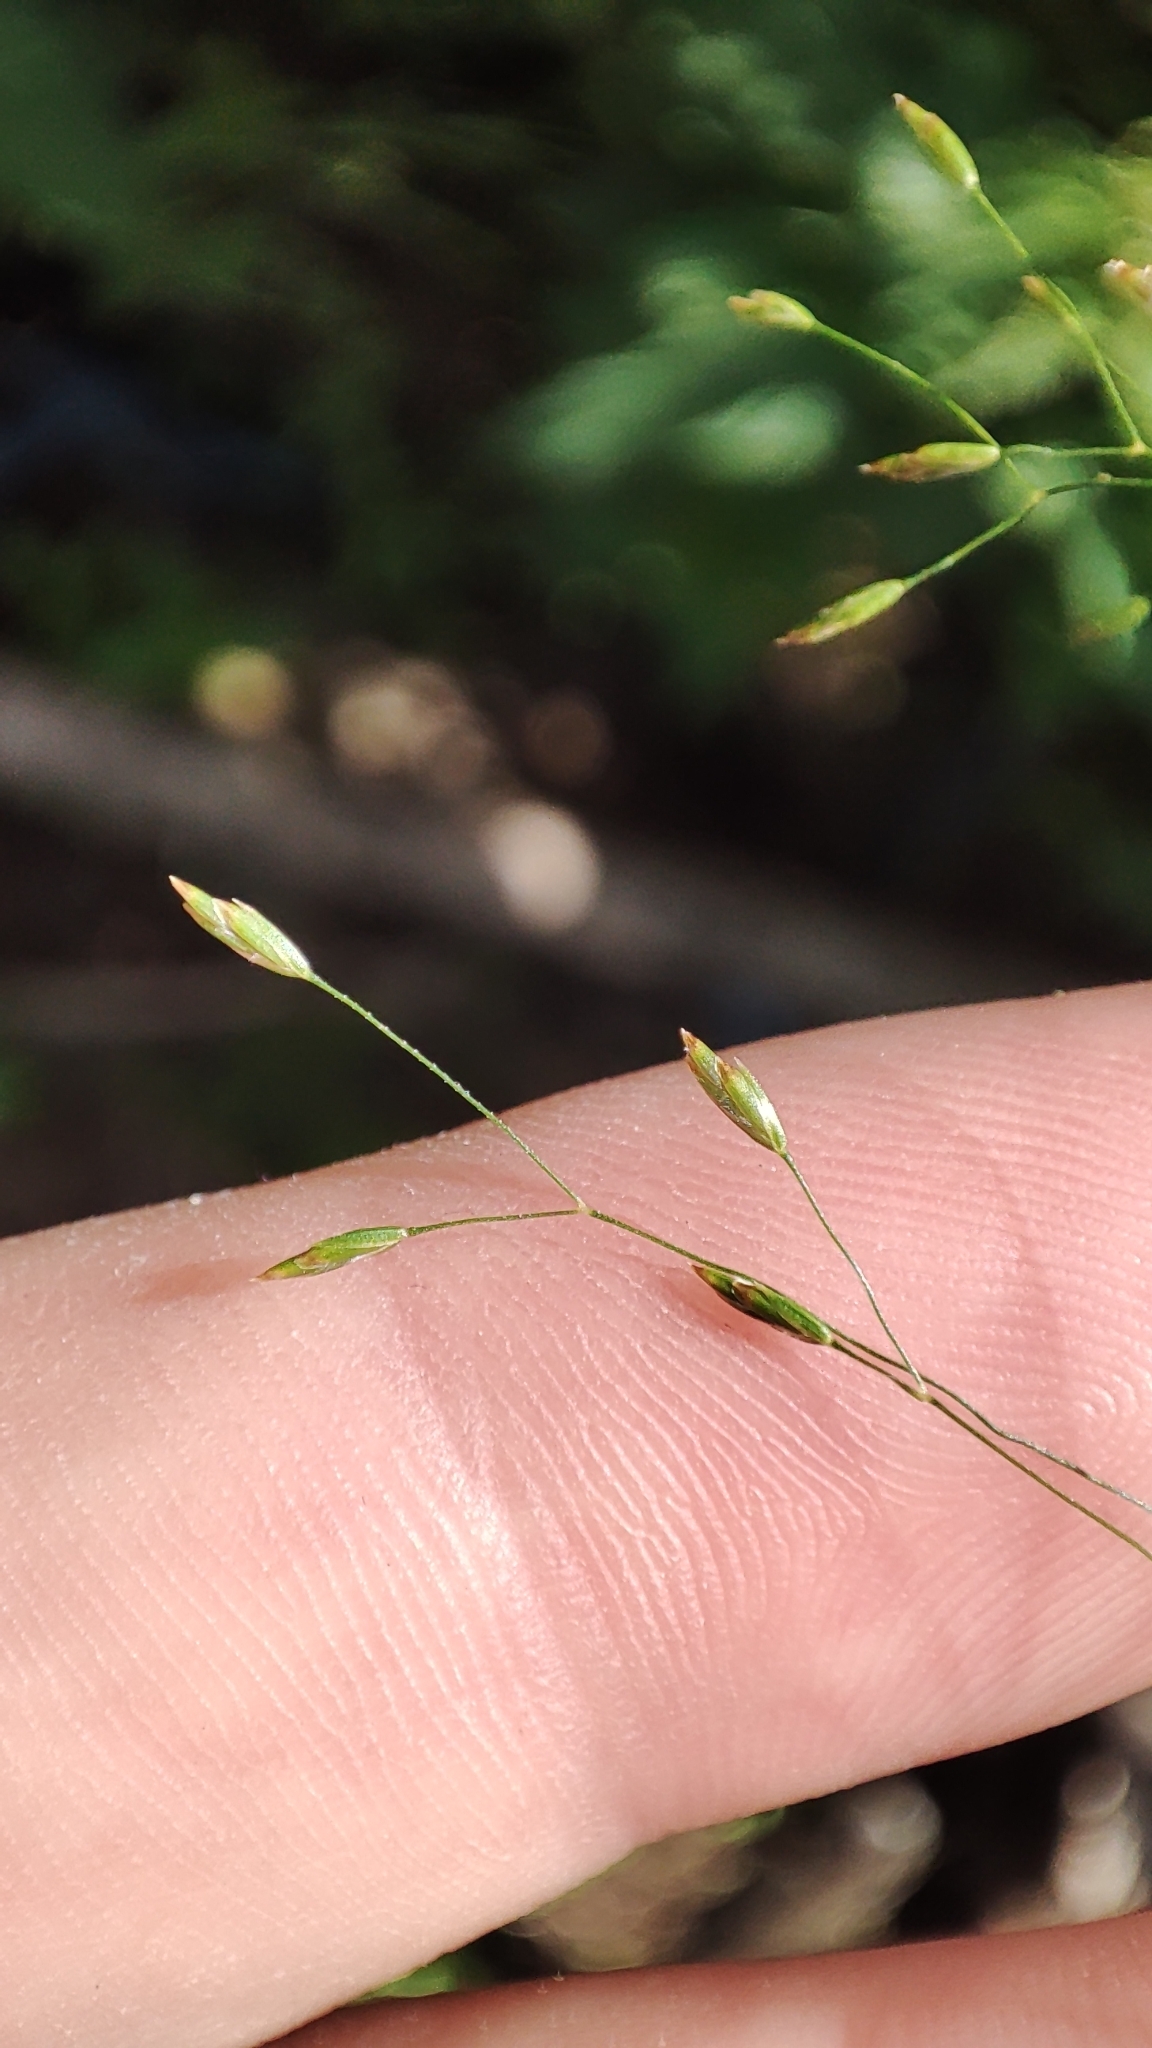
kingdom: Plantae
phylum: Tracheophyta
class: Liliopsida
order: Poales
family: Poaceae
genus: Poa
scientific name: Poa palustris
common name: Swamp meadow-grass
